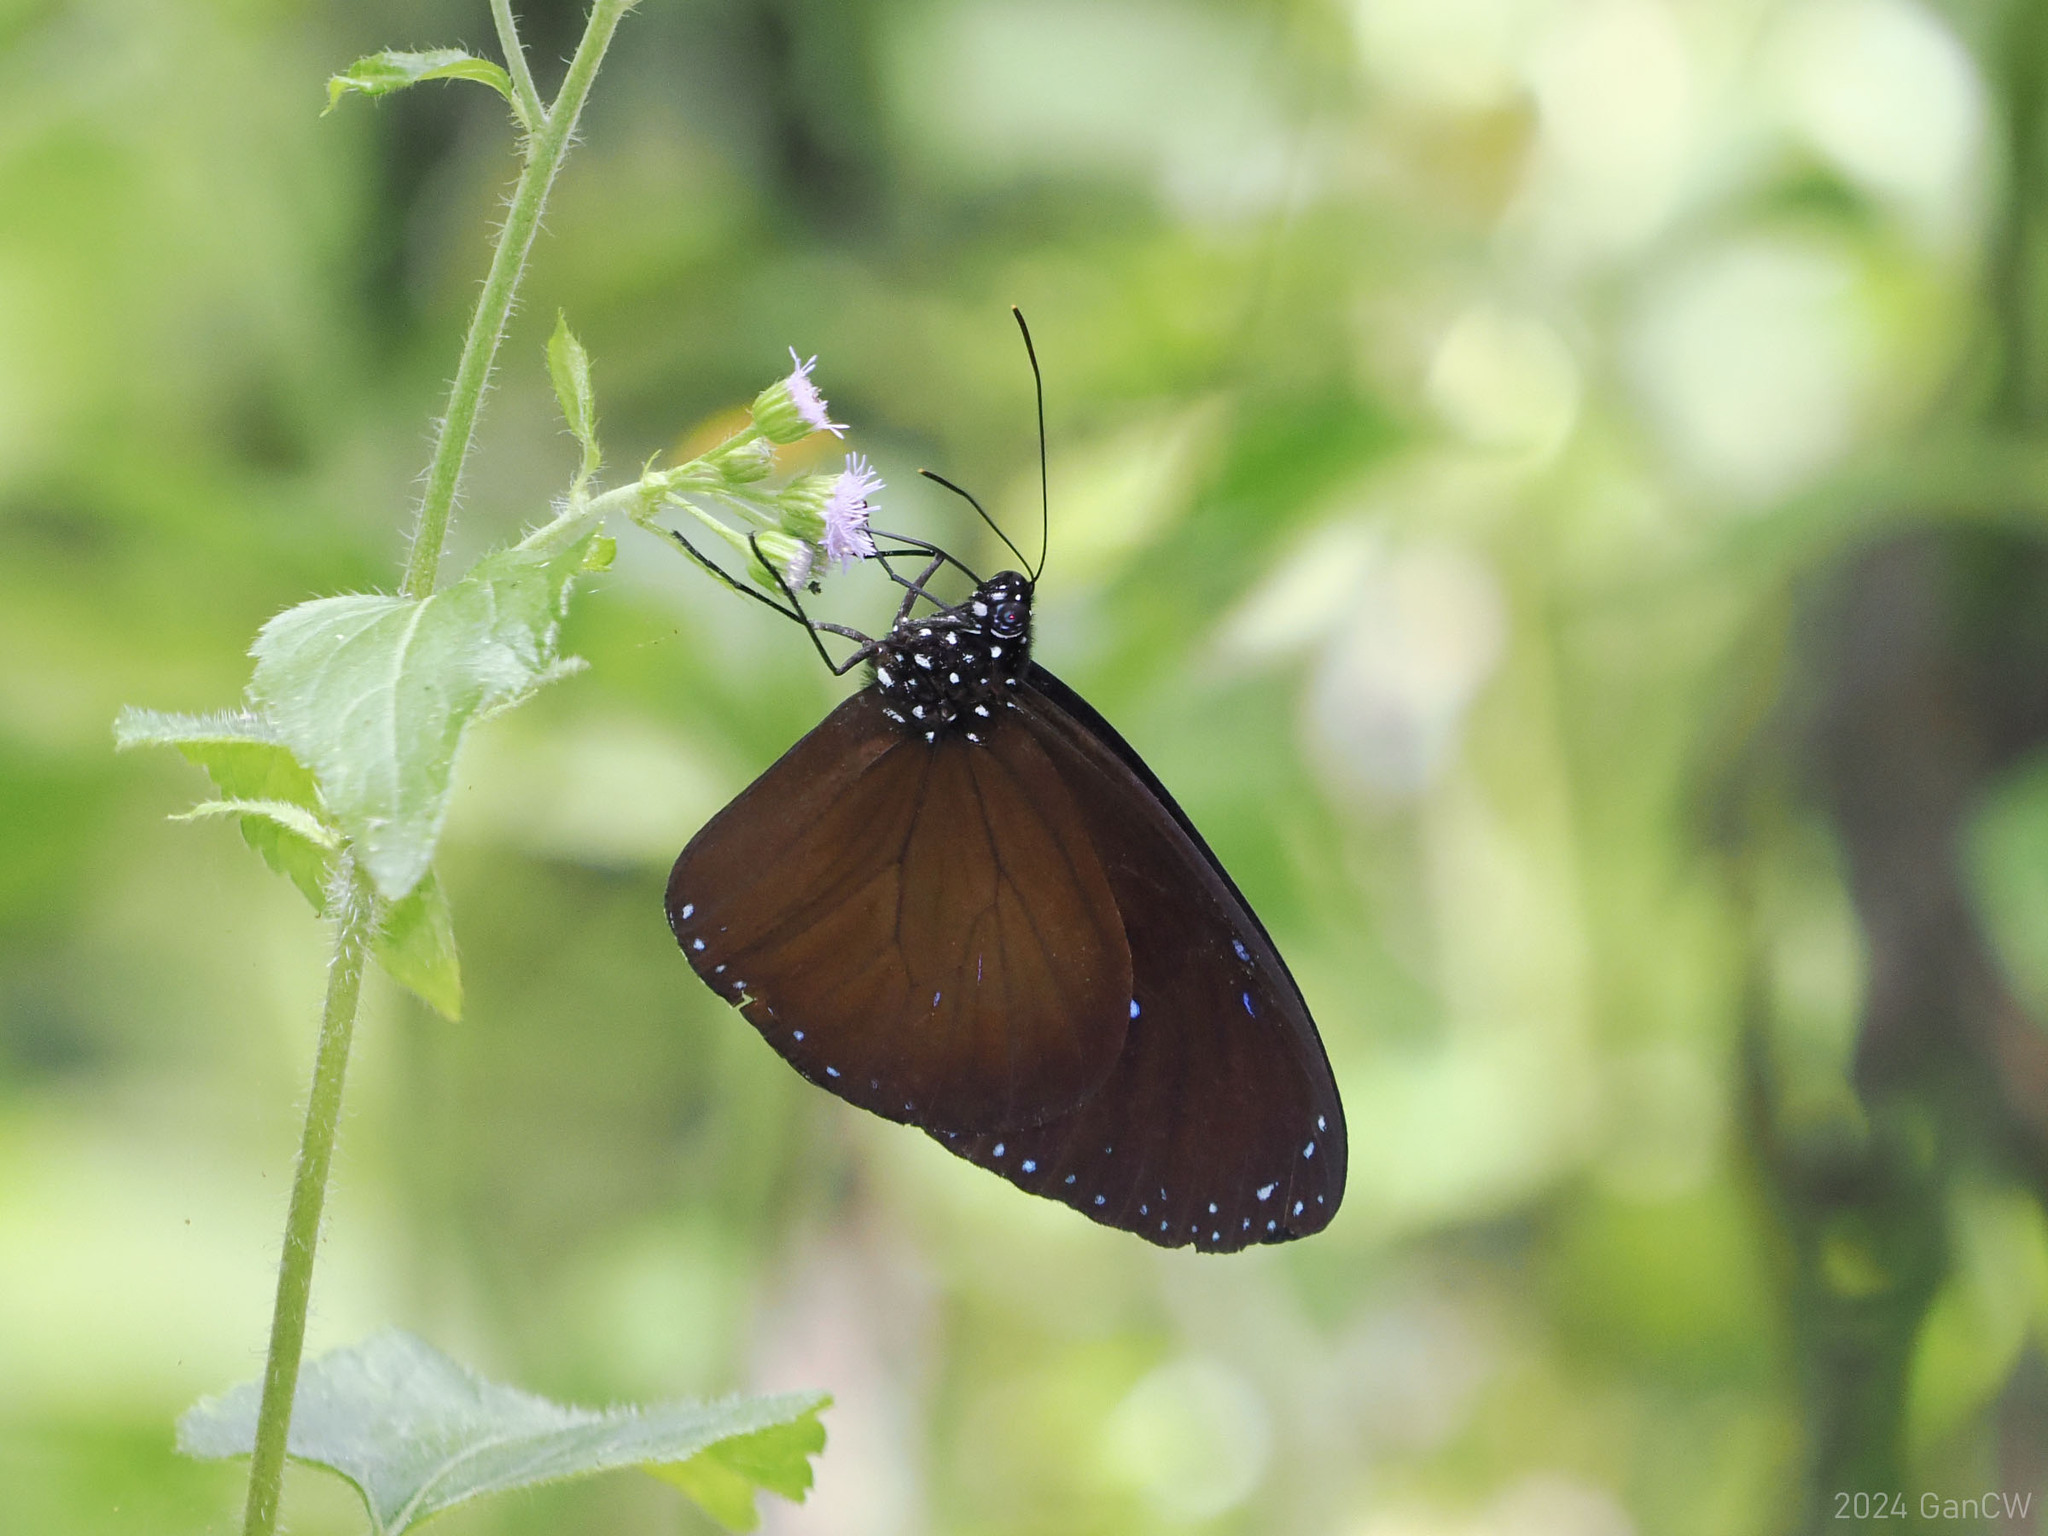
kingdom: Animalia
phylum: Arthropoda
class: Insecta
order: Lepidoptera
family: Nymphalidae
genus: Euploea
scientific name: Euploea mulciber
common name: Striped blue crow butterfly
